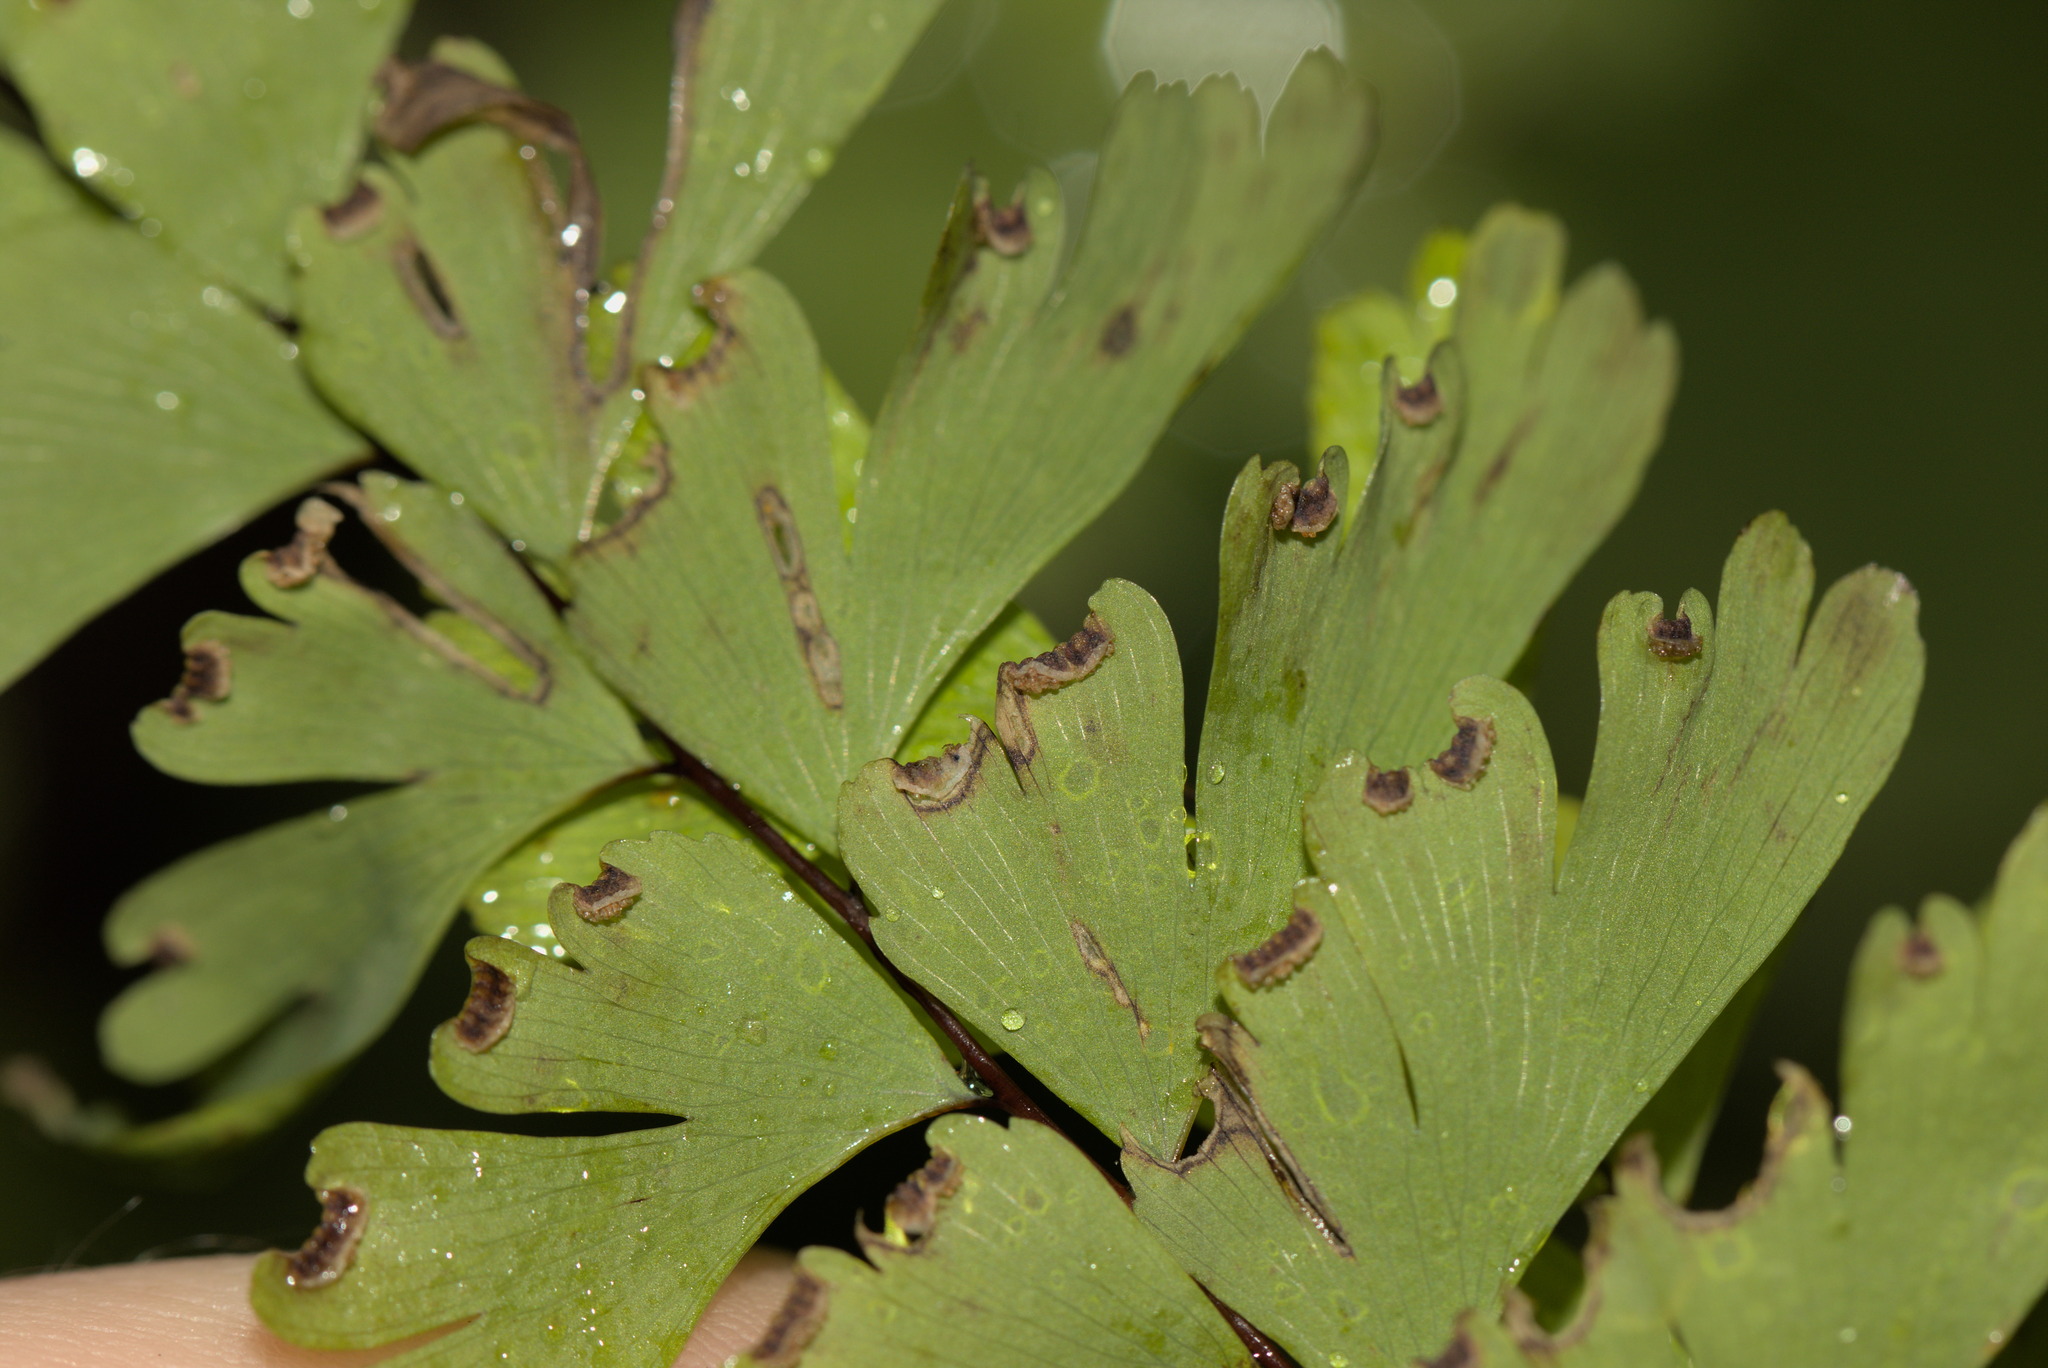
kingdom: Plantae
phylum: Tracheophyta
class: Polypodiopsida
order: Polypodiales
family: Pteridaceae
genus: Adiantum
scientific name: Adiantum aleuticum
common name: Aleutian maidenhair fern
